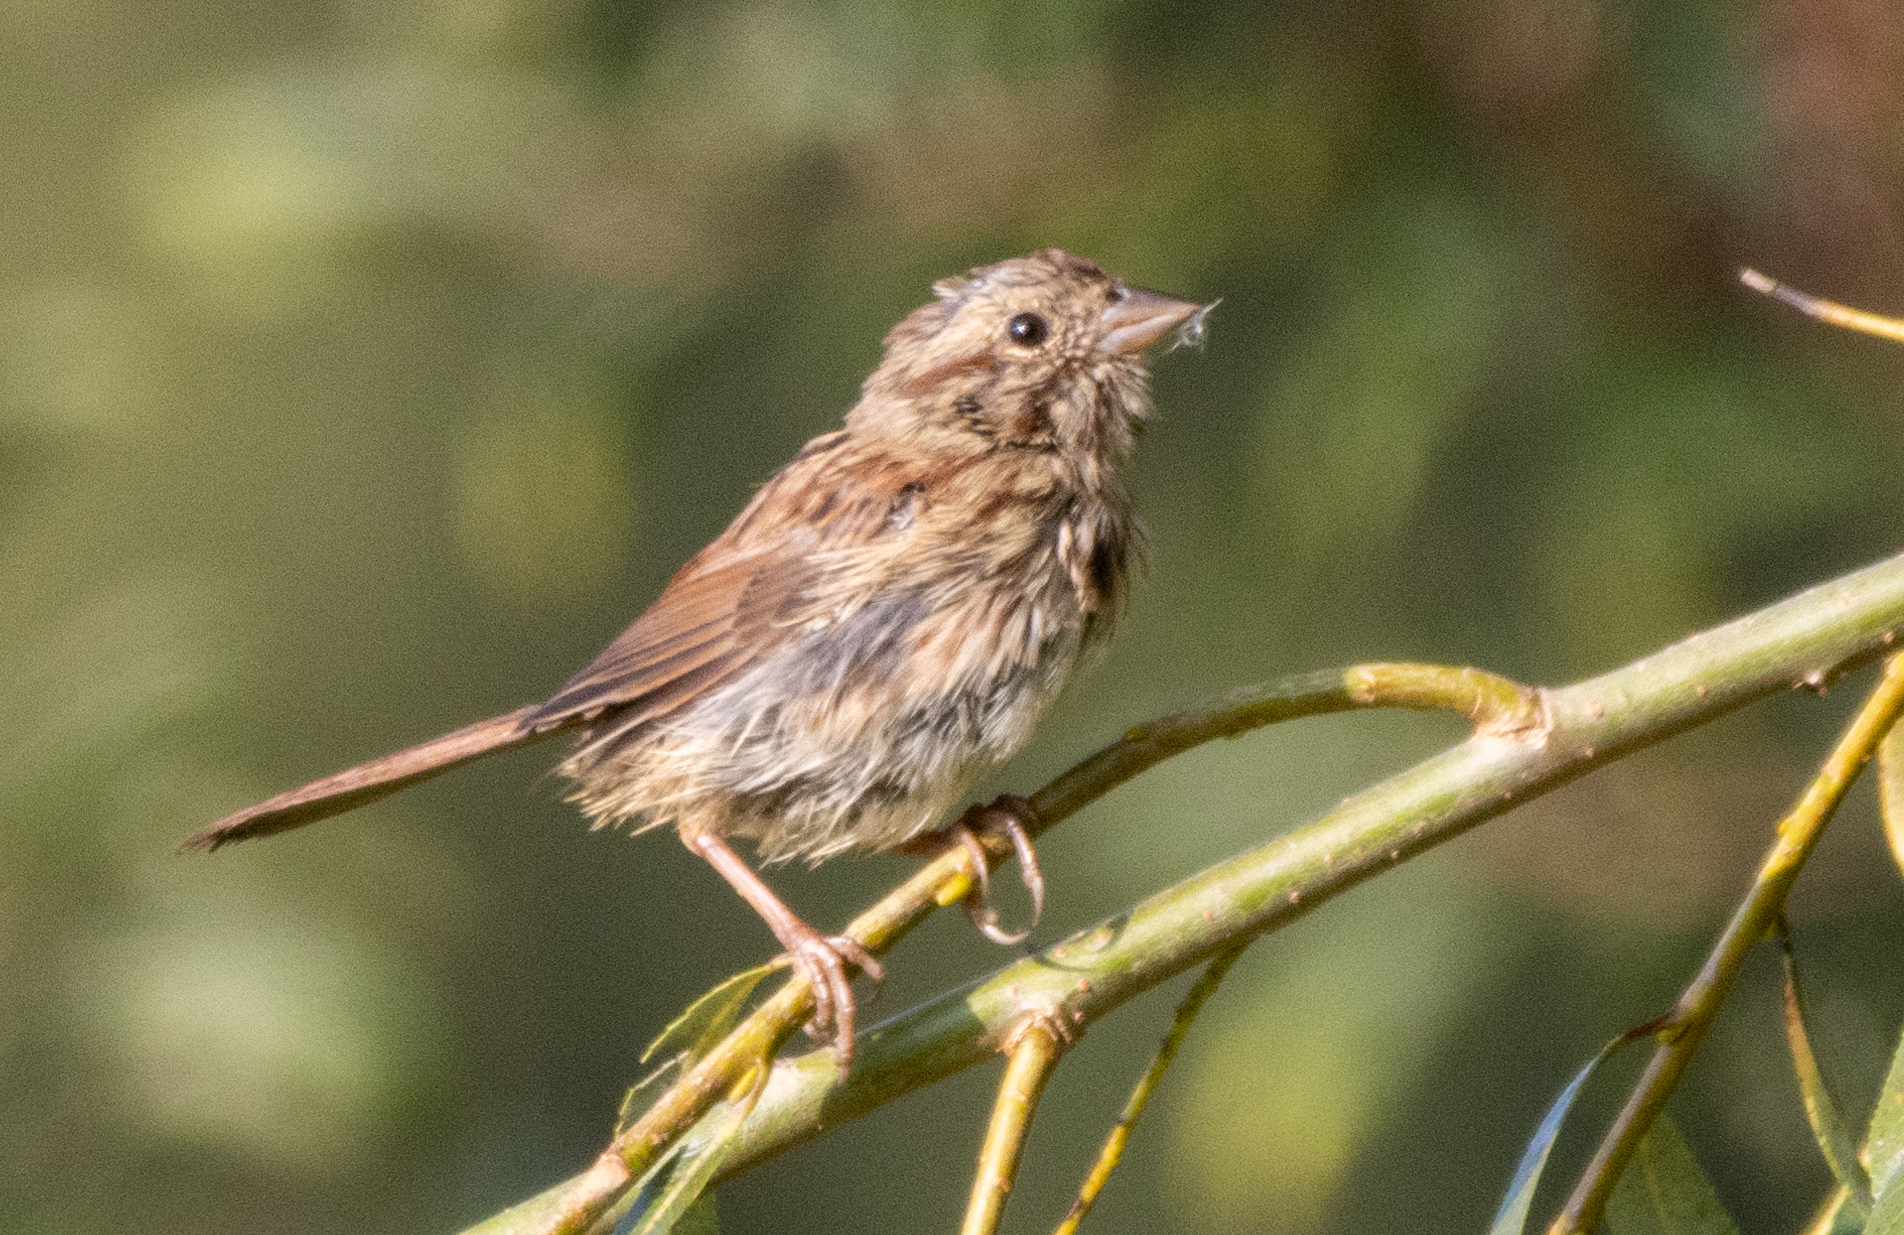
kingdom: Animalia
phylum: Chordata
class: Aves
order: Passeriformes
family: Passerellidae
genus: Melospiza
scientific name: Melospiza melodia
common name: Song sparrow
